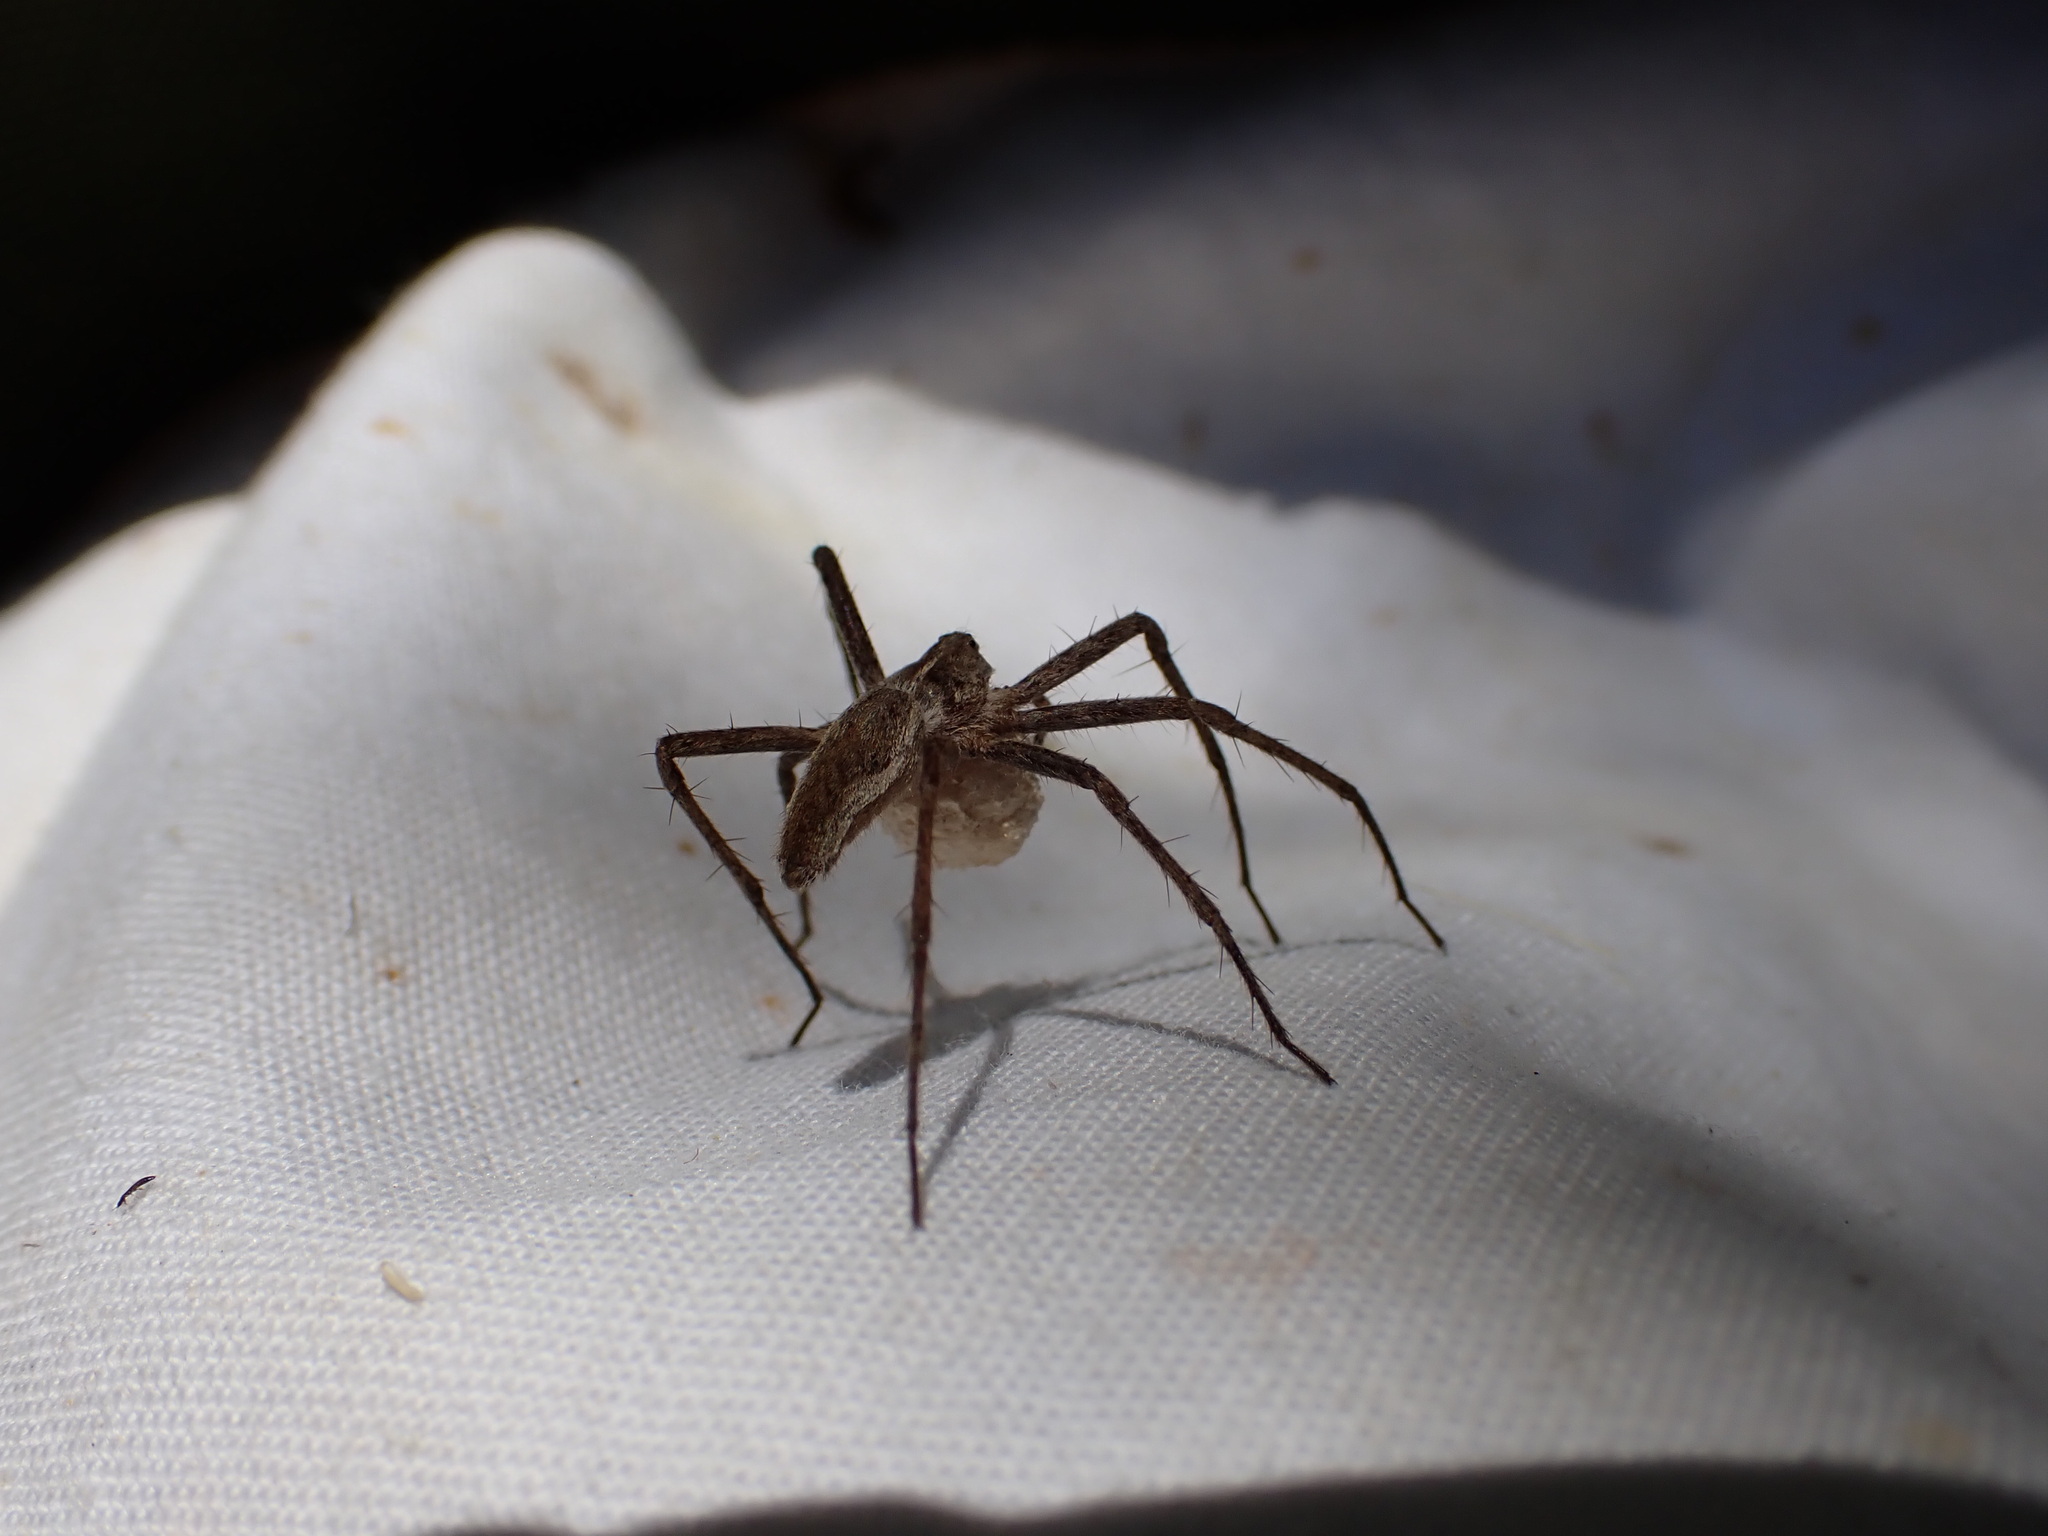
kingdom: Animalia
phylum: Arthropoda
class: Arachnida
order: Araneae
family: Pisauridae
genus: Pisaura
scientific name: Pisaura
